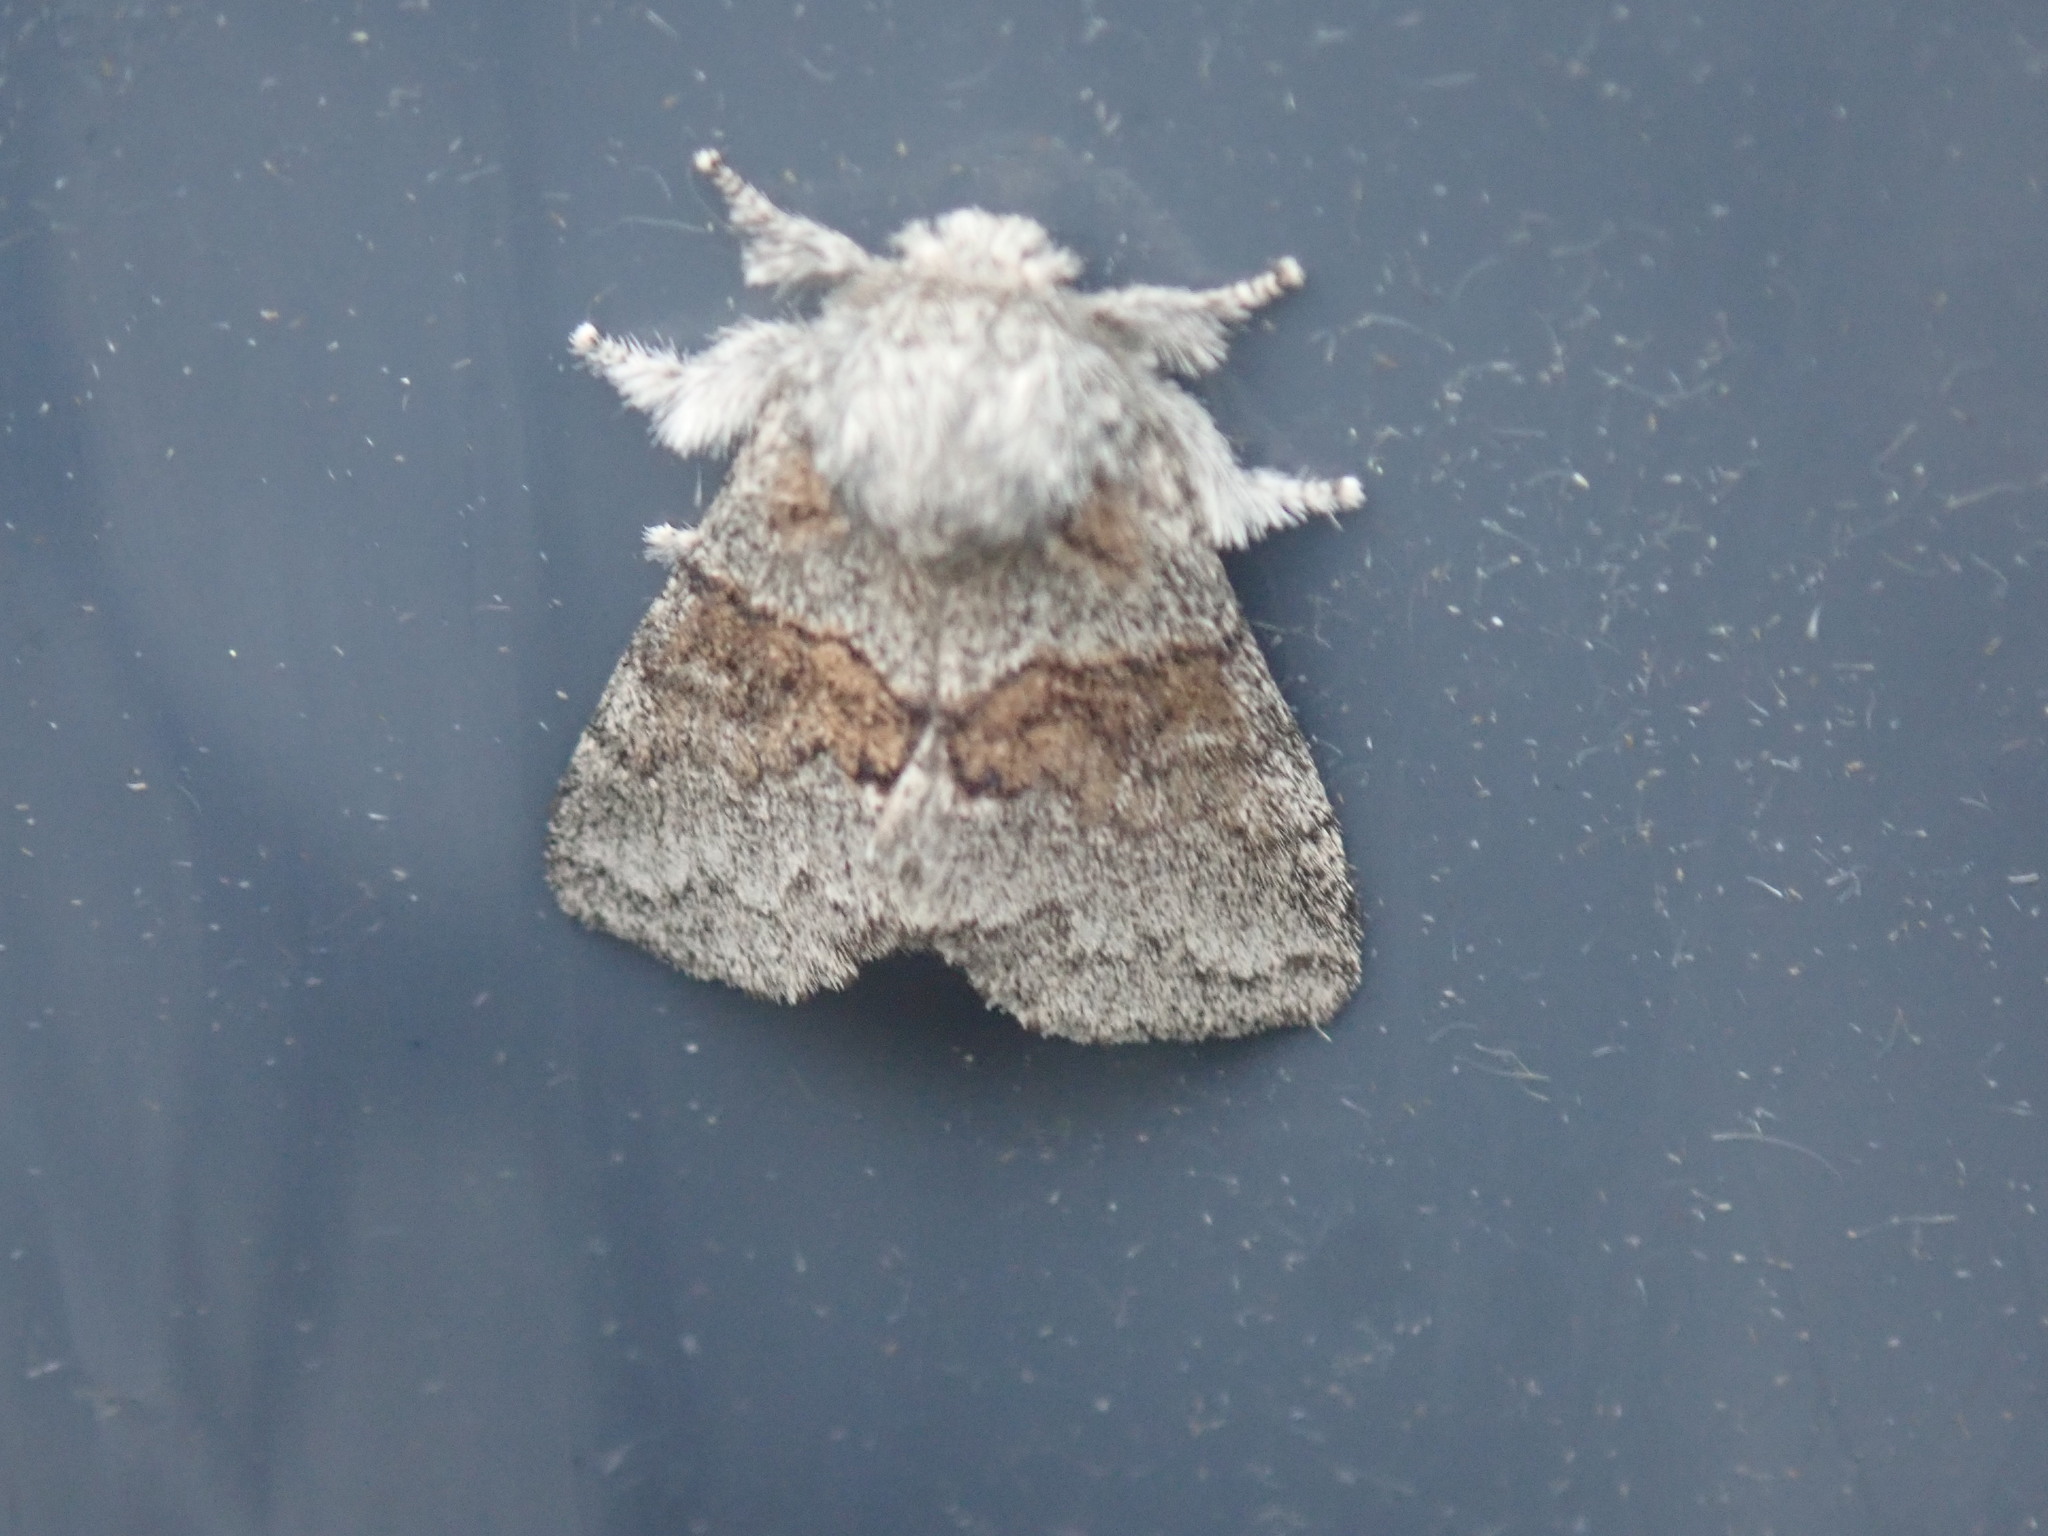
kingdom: Animalia
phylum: Arthropoda
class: Insecta
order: Lepidoptera
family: Notodontidae
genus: Gluphisia
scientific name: Gluphisia septentrionis
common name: Common gluphisia
